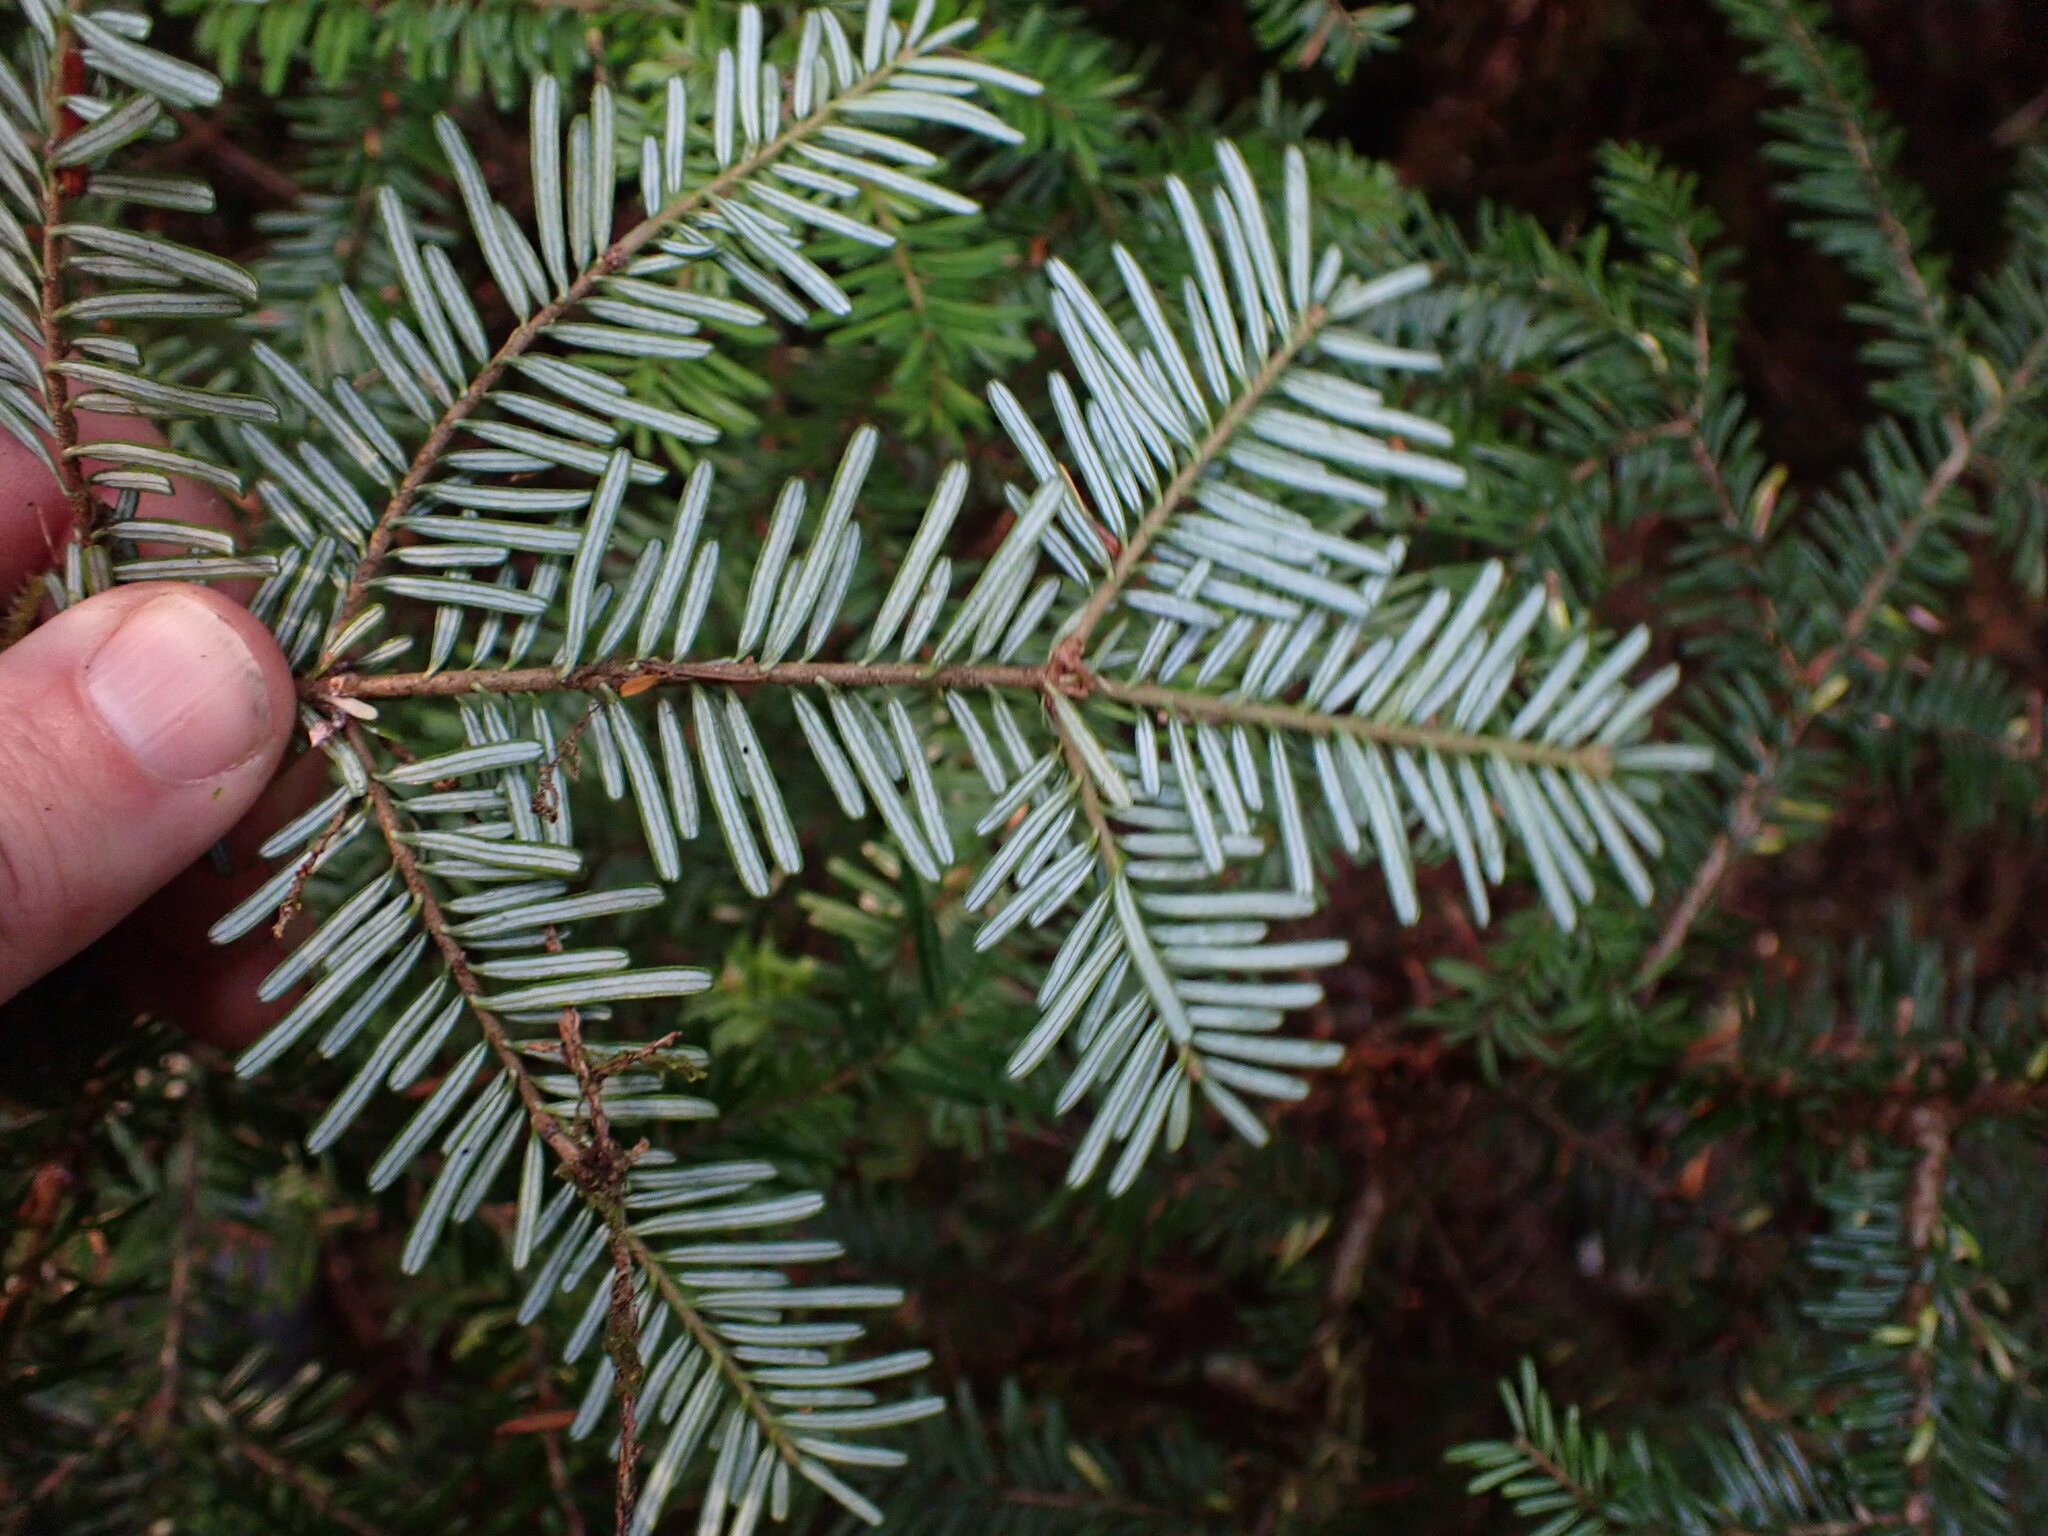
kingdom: Plantae
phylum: Tracheophyta
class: Pinopsida
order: Pinales
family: Pinaceae
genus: Abies
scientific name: Abies amabilis
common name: Pacific silver fir
